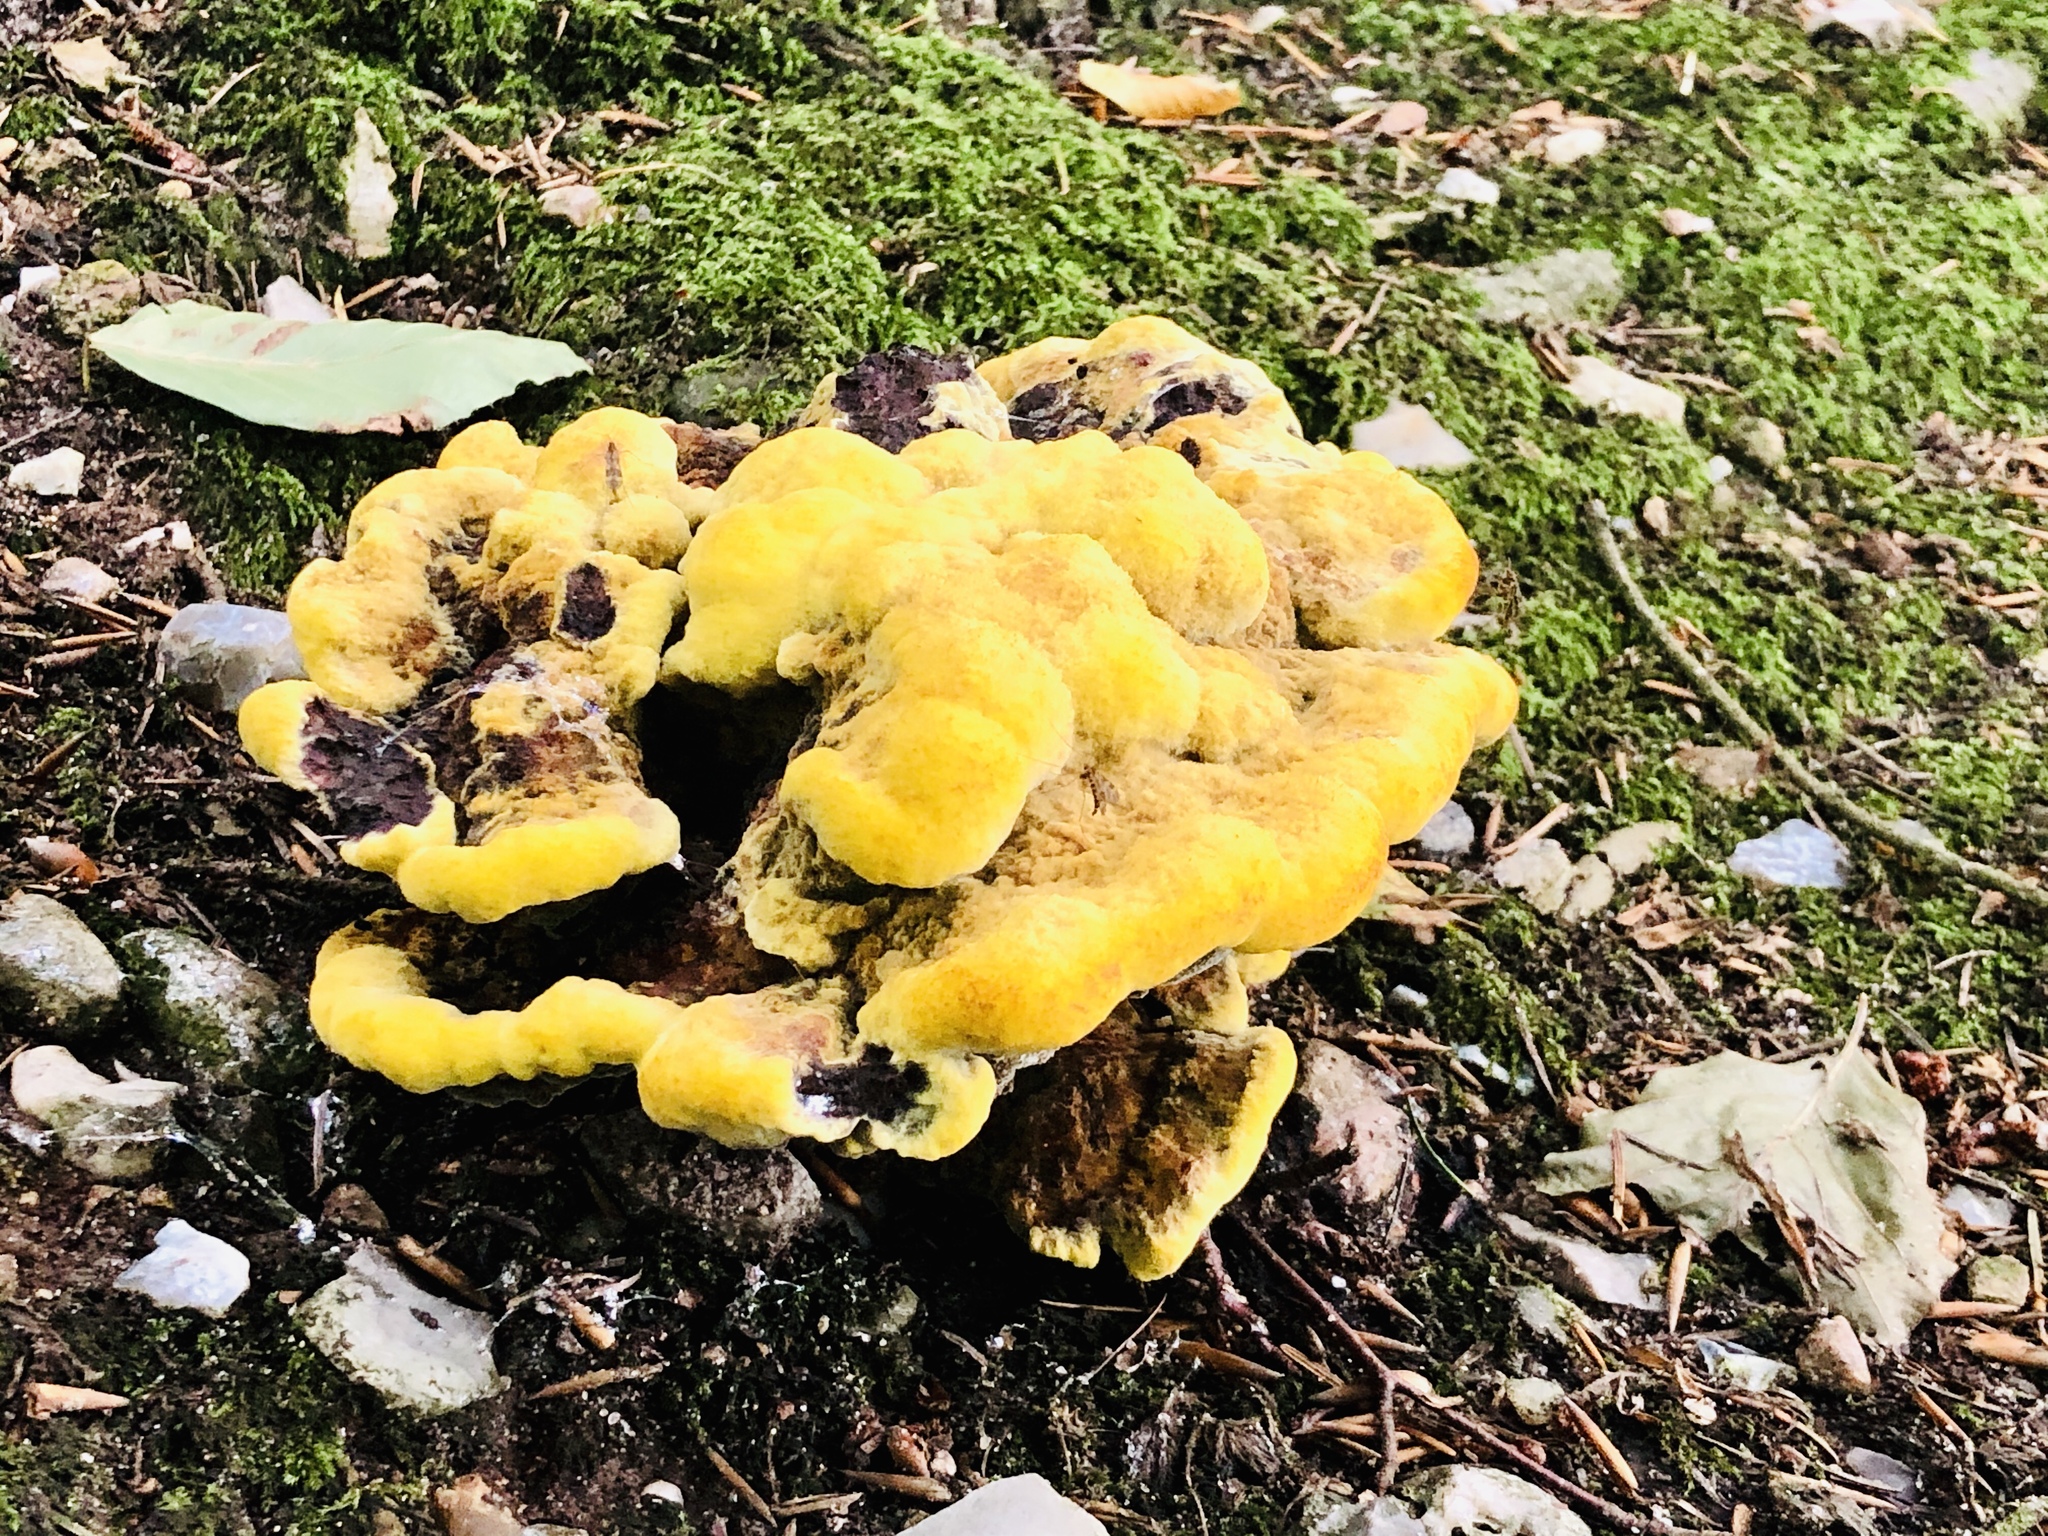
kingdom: Fungi
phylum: Basidiomycota
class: Agaricomycetes
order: Polyporales
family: Laetiporaceae
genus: Phaeolus
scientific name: Phaeolus schweinitzii
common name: Dyer's mazegill
